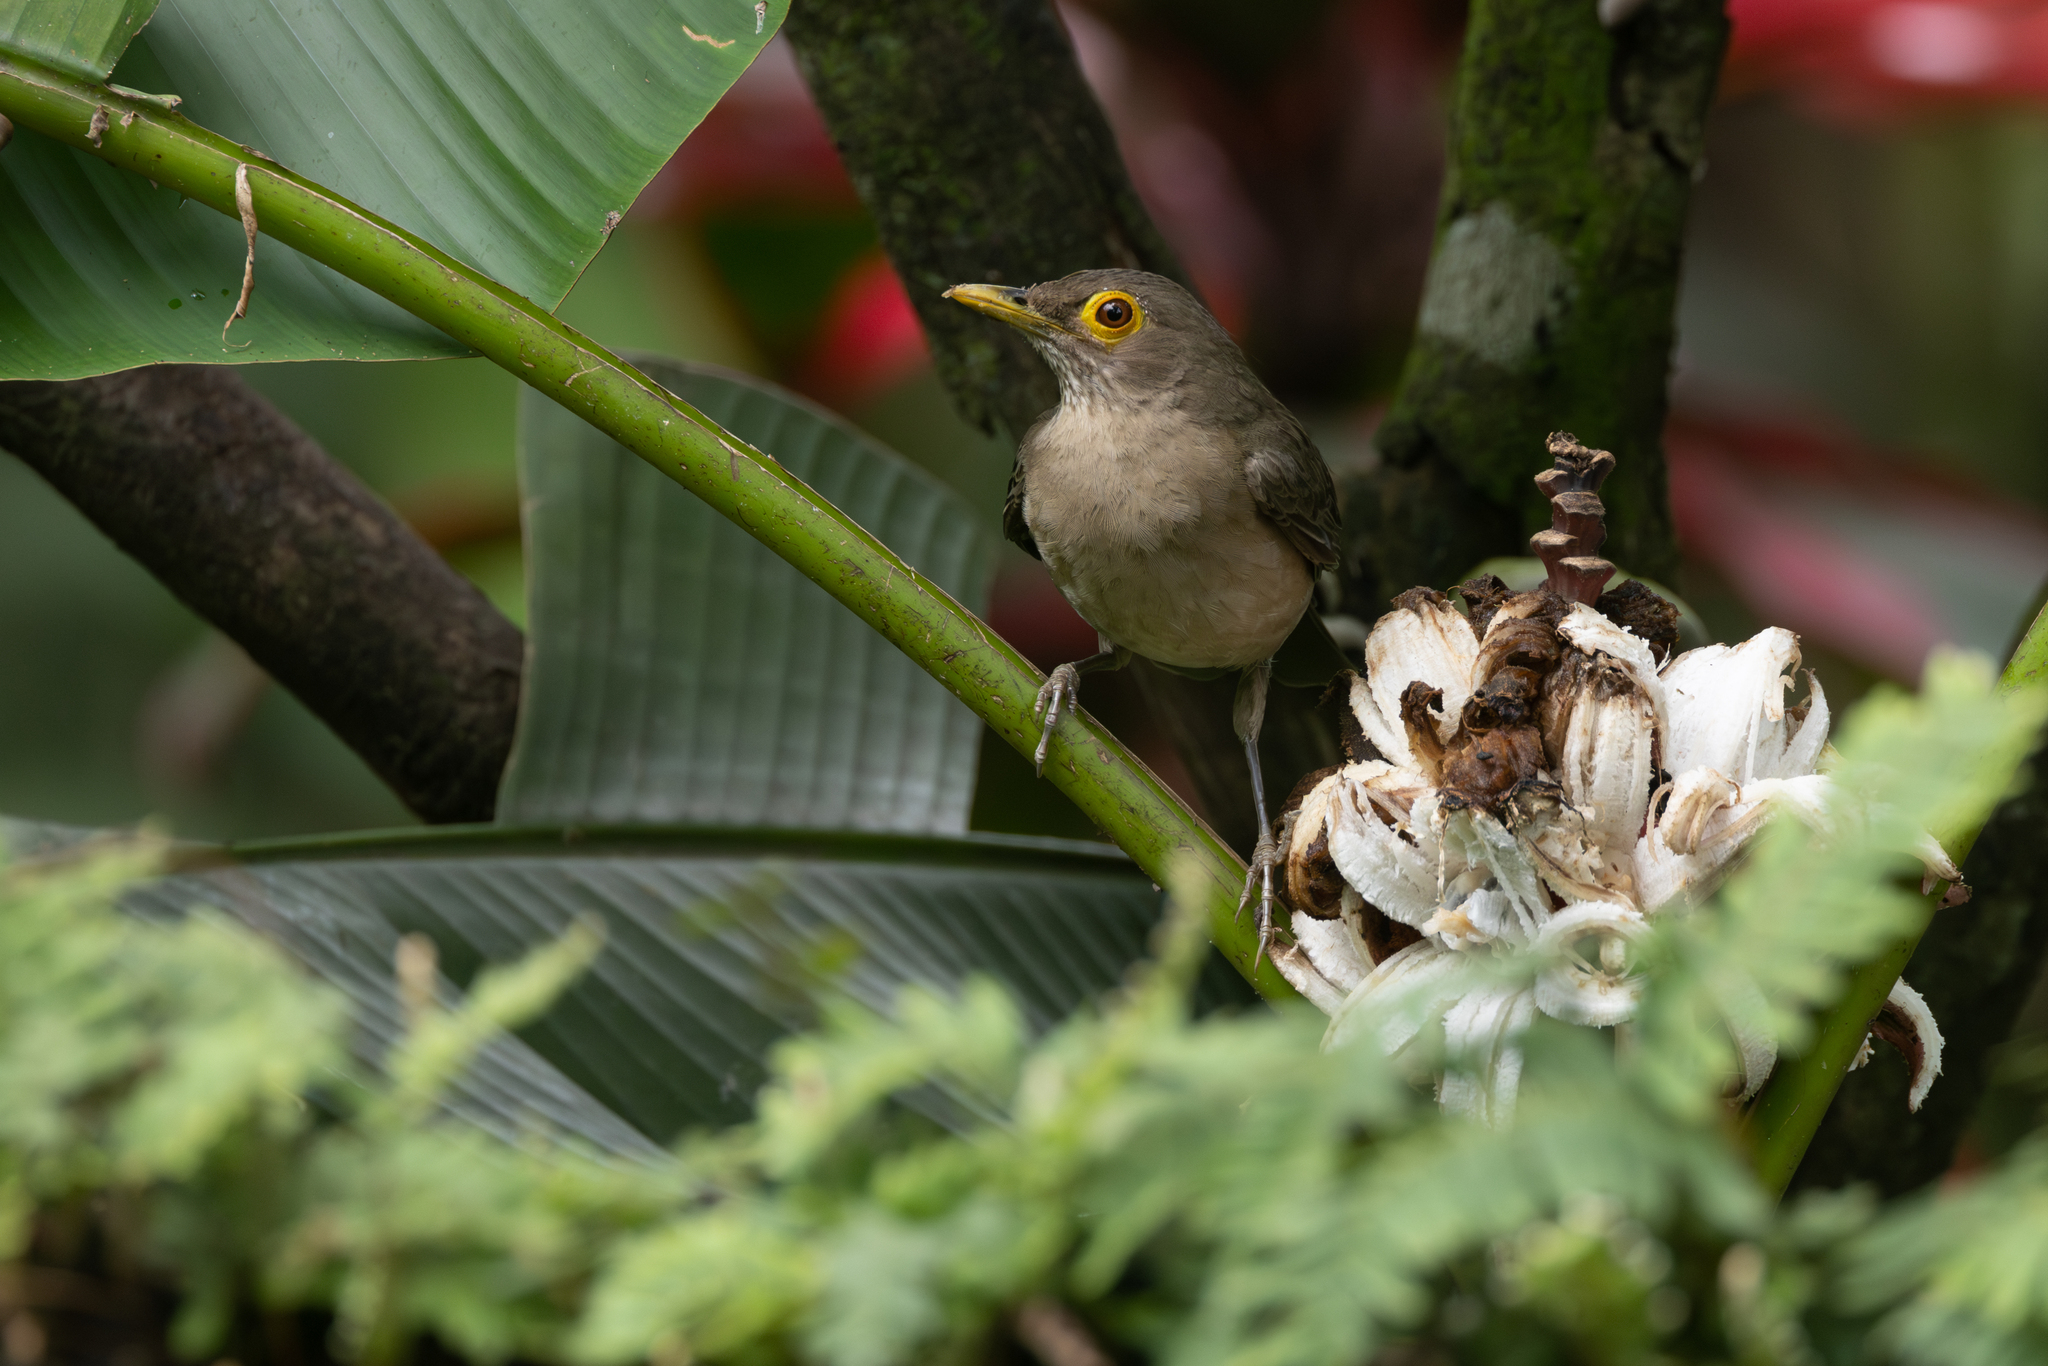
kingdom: Animalia
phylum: Chordata
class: Aves
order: Passeriformes
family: Turdidae
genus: Turdus
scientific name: Turdus nudigenis
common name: Spectacled thrush
